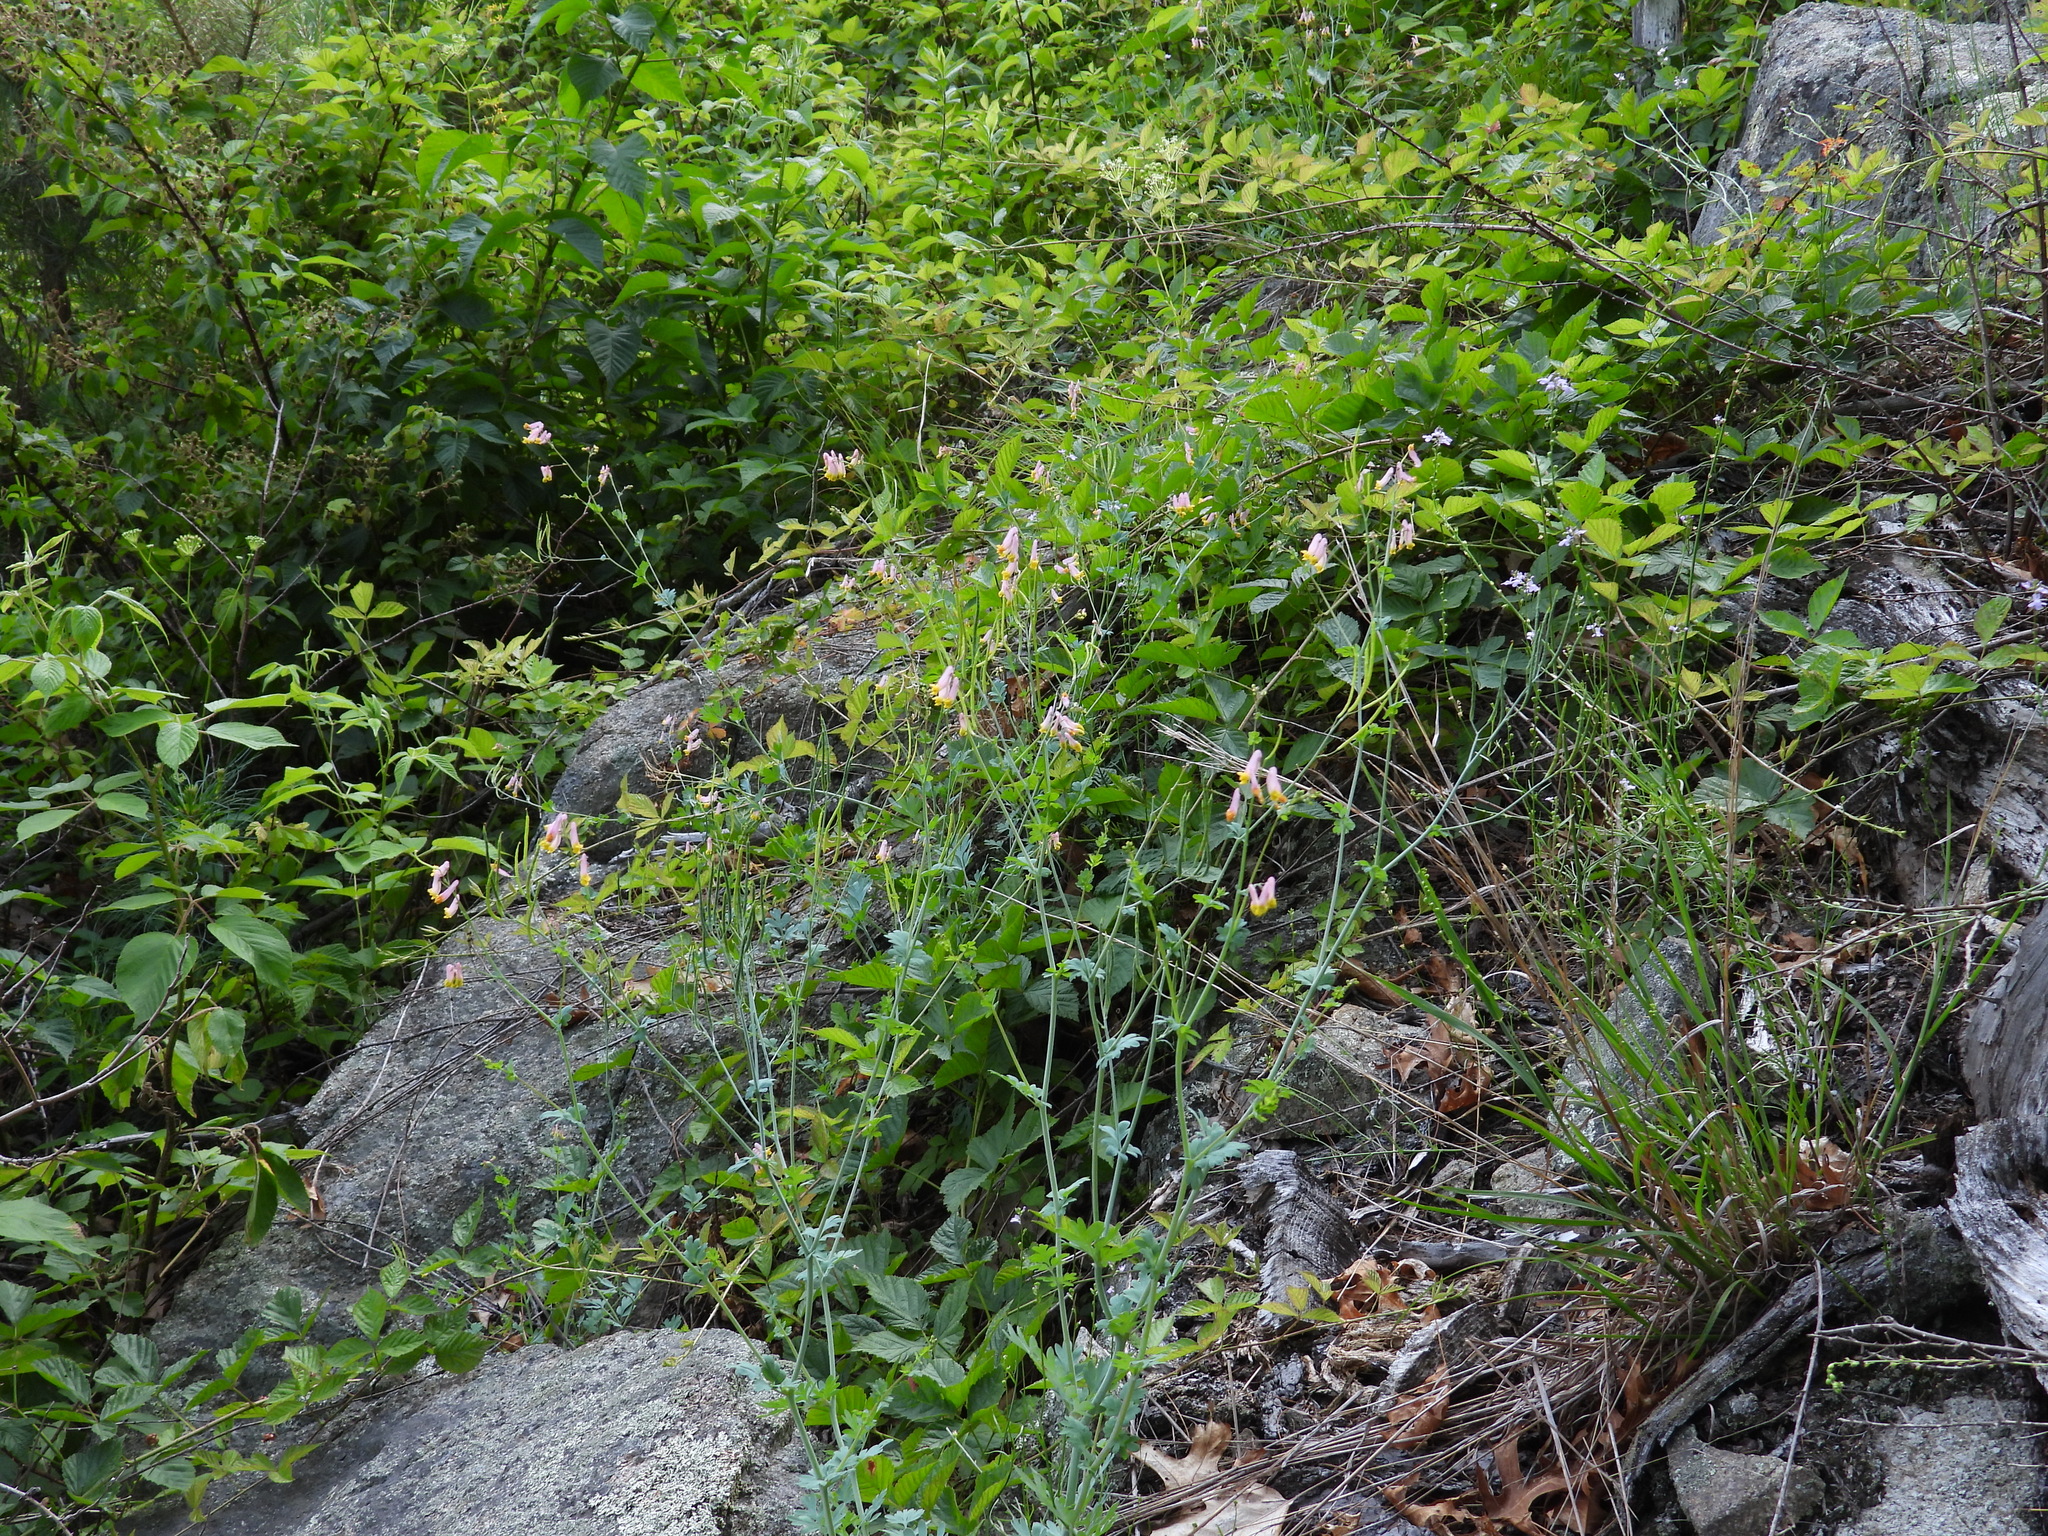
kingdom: Plantae
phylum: Tracheophyta
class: Magnoliopsida
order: Ranunculales
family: Papaveraceae
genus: Capnoides
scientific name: Capnoides sempervirens
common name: Rock harlequin
